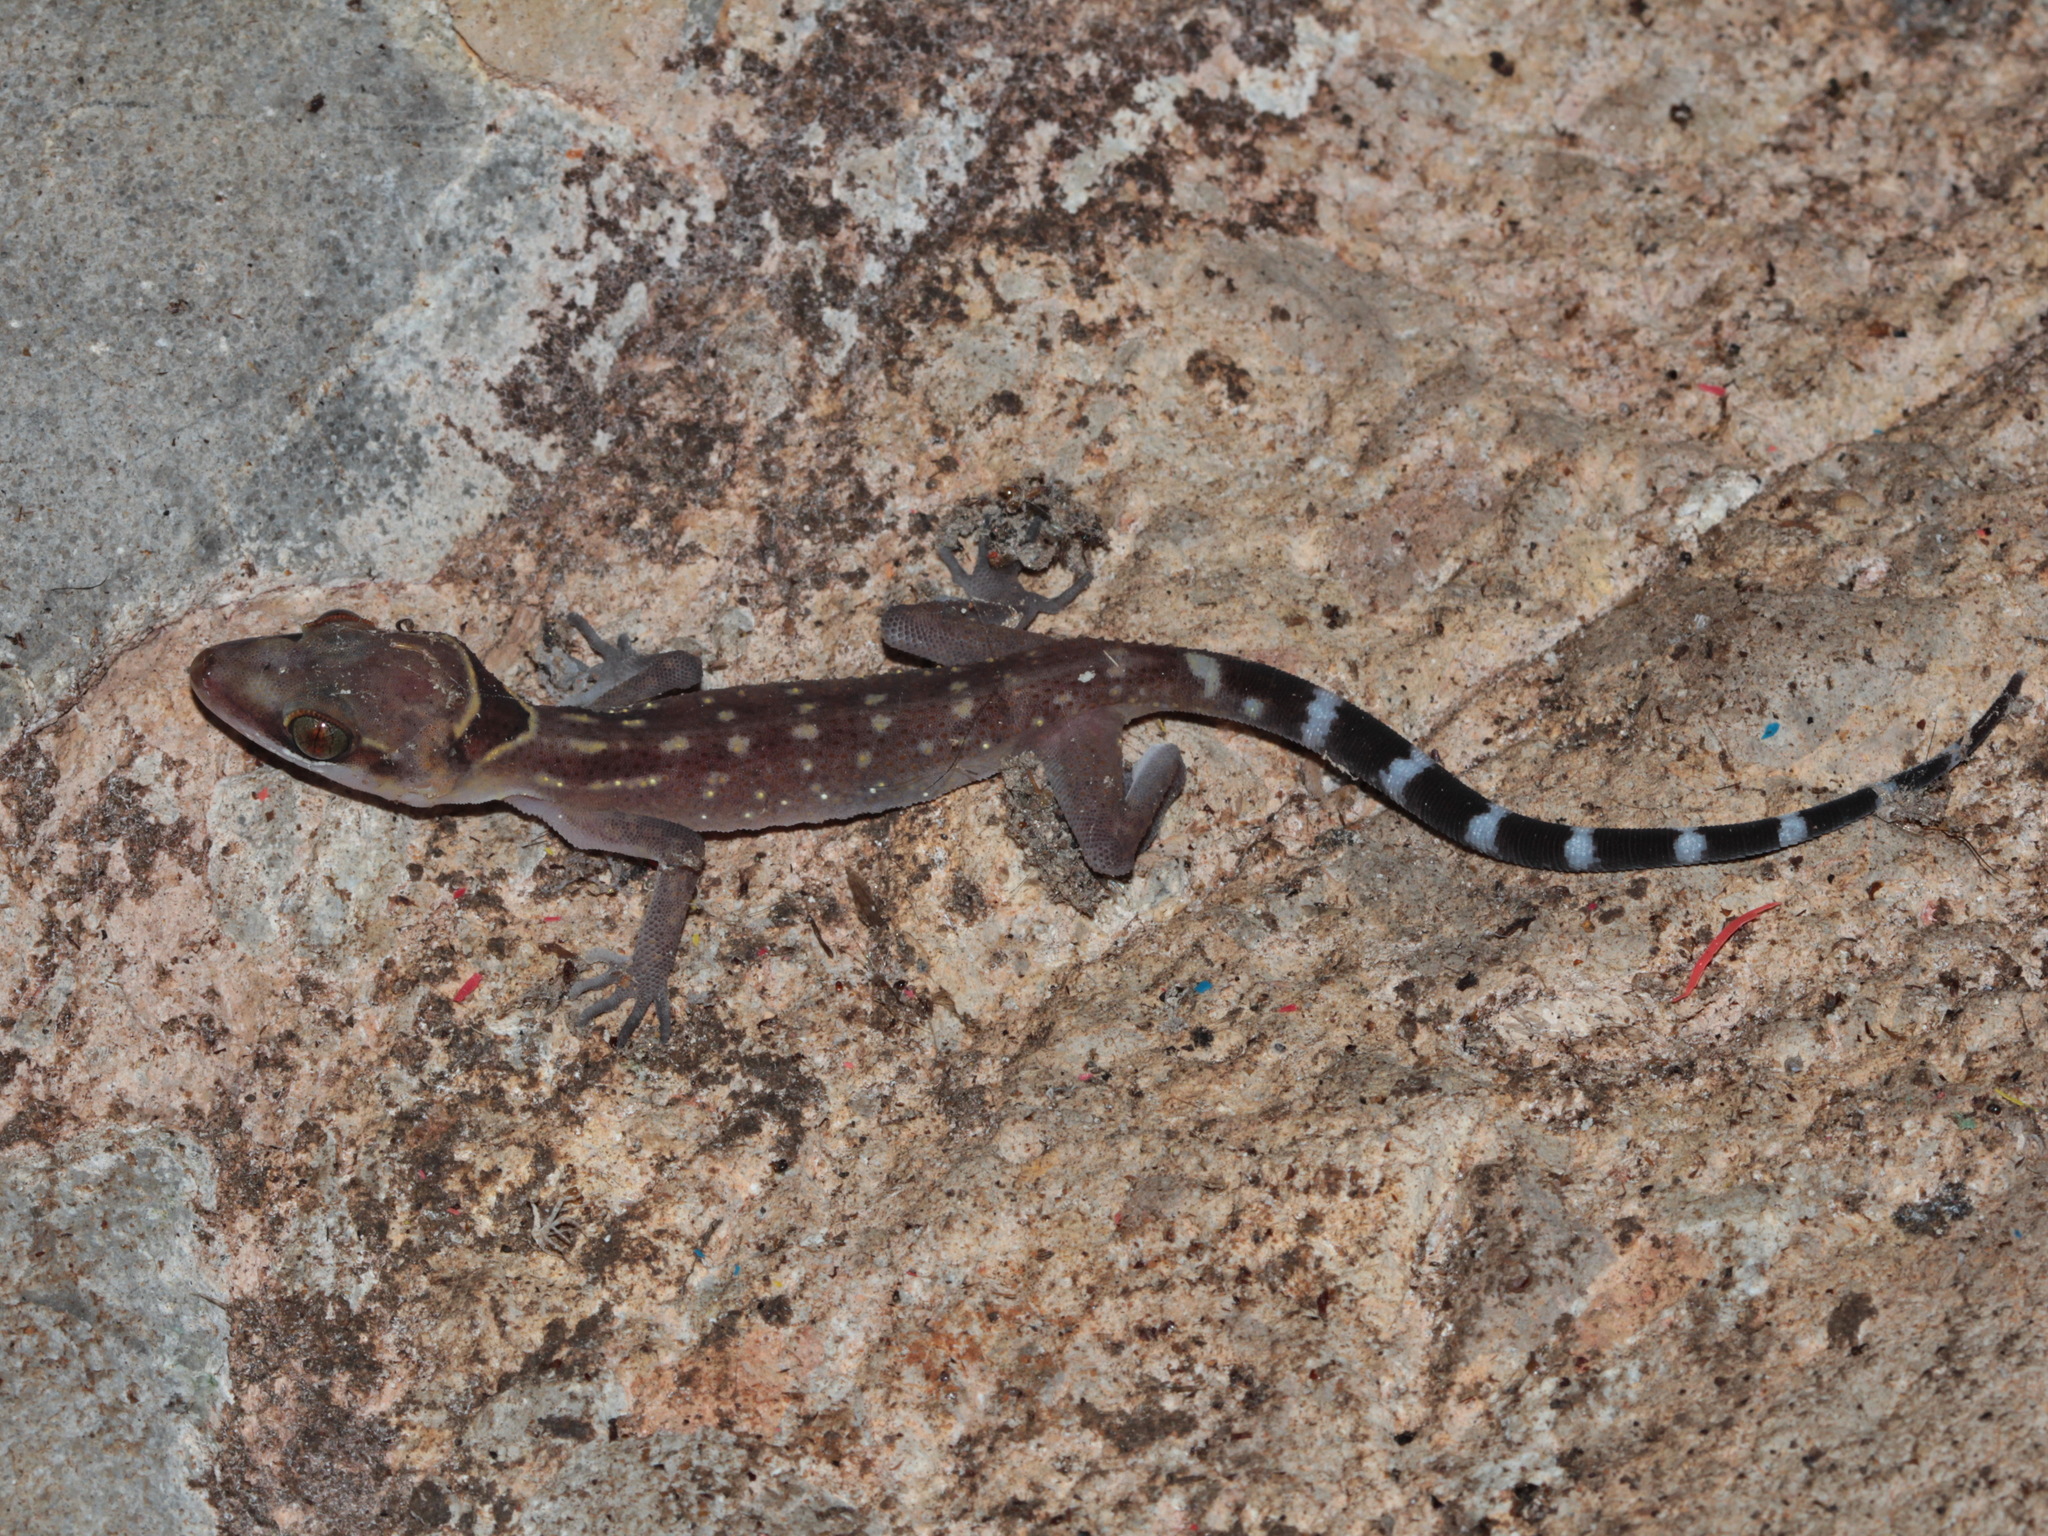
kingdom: Animalia
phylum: Chordata
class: Squamata
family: Gekkonidae
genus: Cyrtodactylus
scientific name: Cyrtodactylus oldhami
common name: Oldham's bow-fingered gecko
